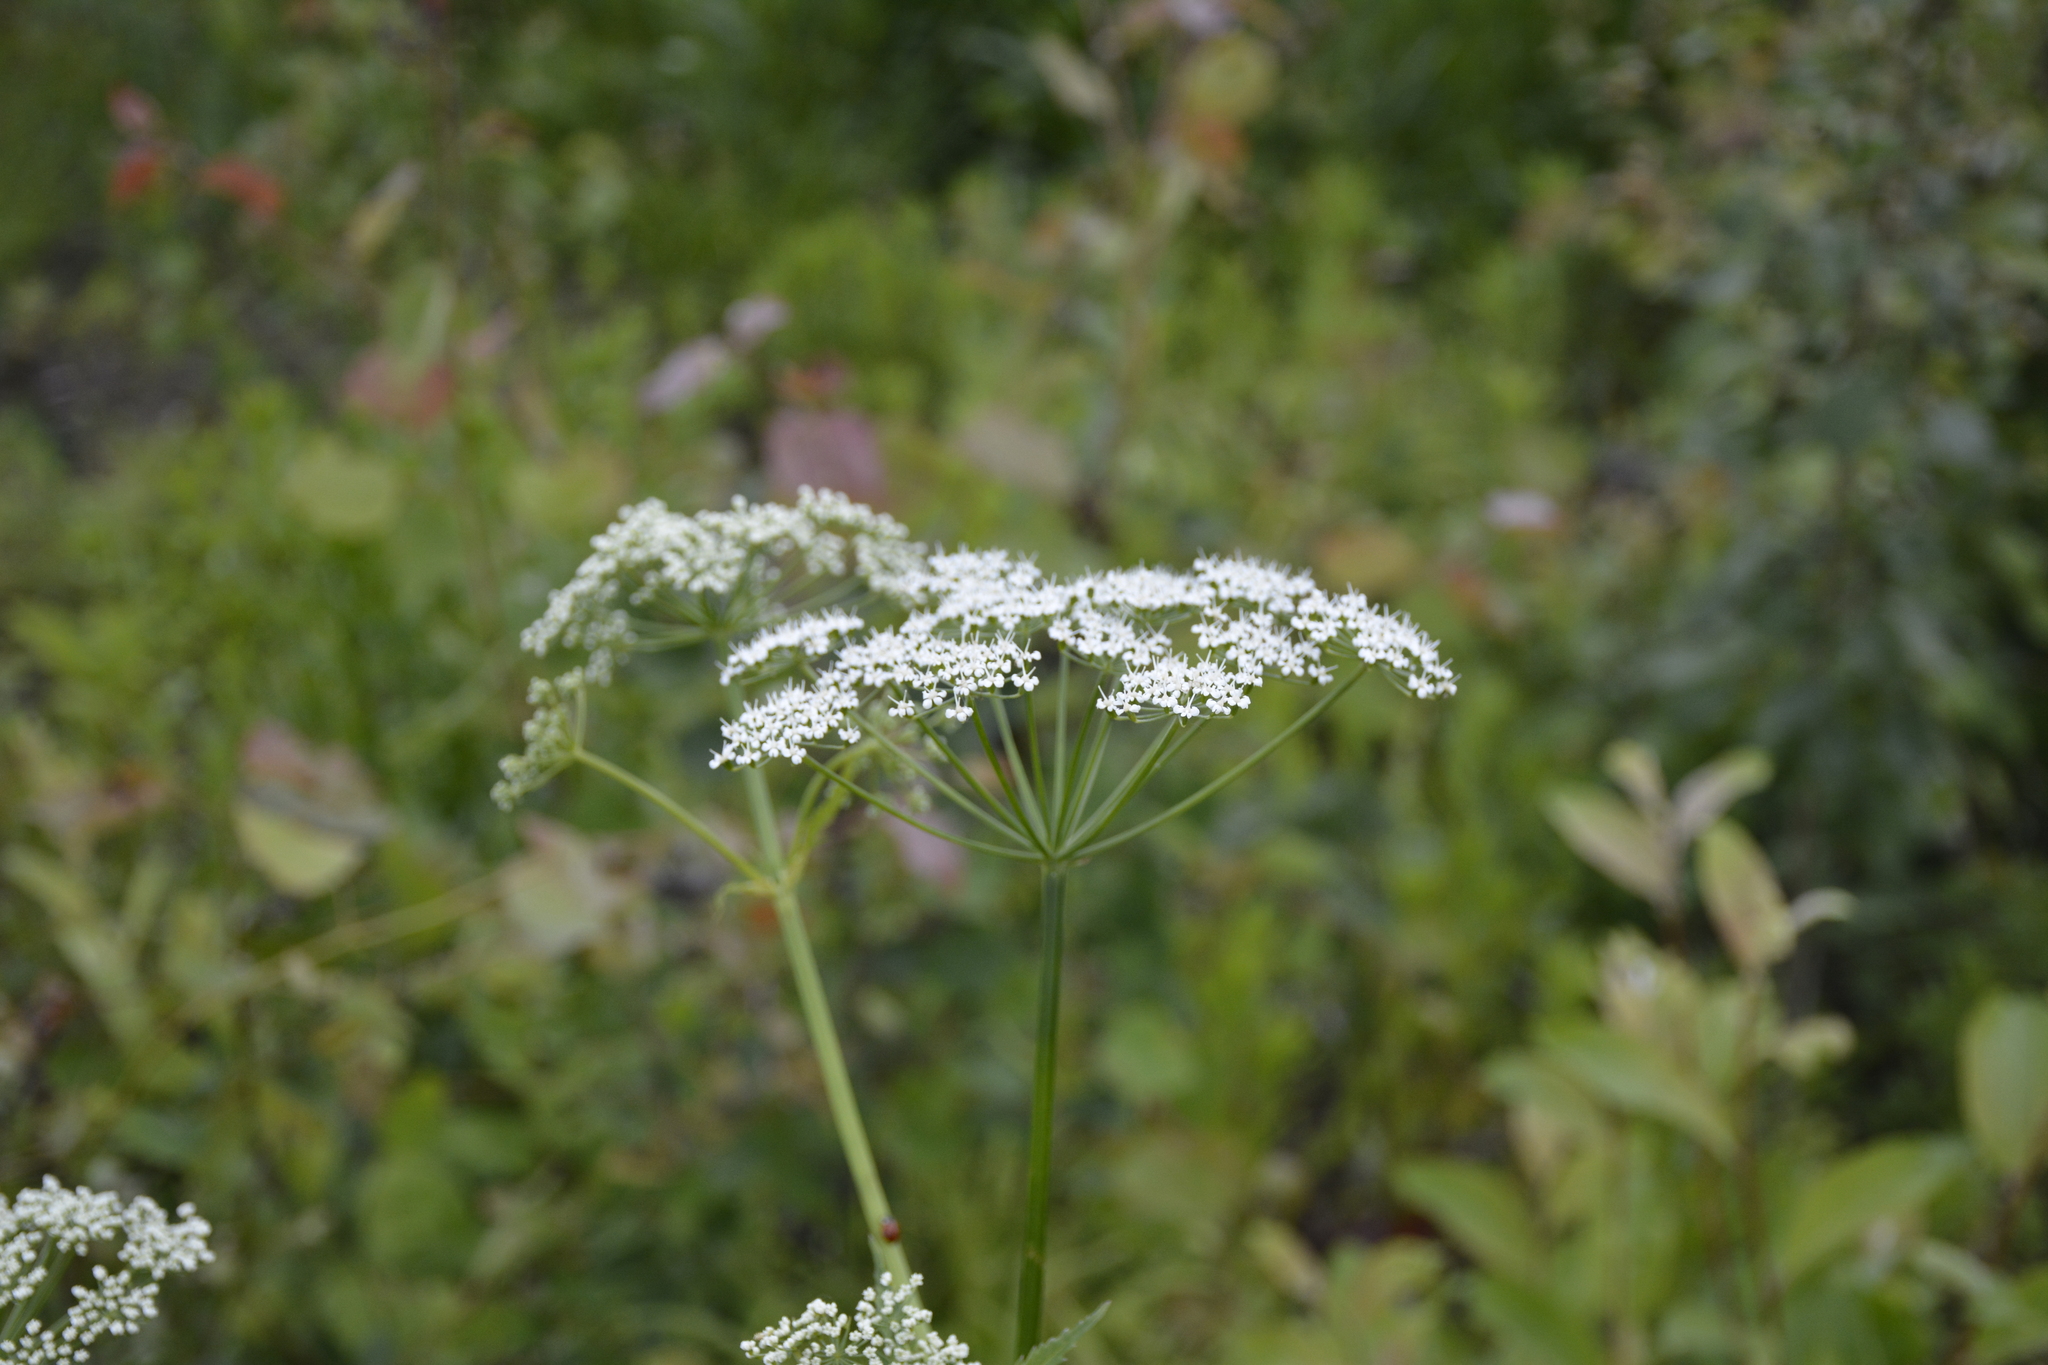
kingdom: Plantae
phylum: Tracheophyta
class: Magnoliopsida
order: Apiales
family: Apiaceae
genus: Aegopodium
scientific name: Aegopodium podagraria
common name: Ground-elder
